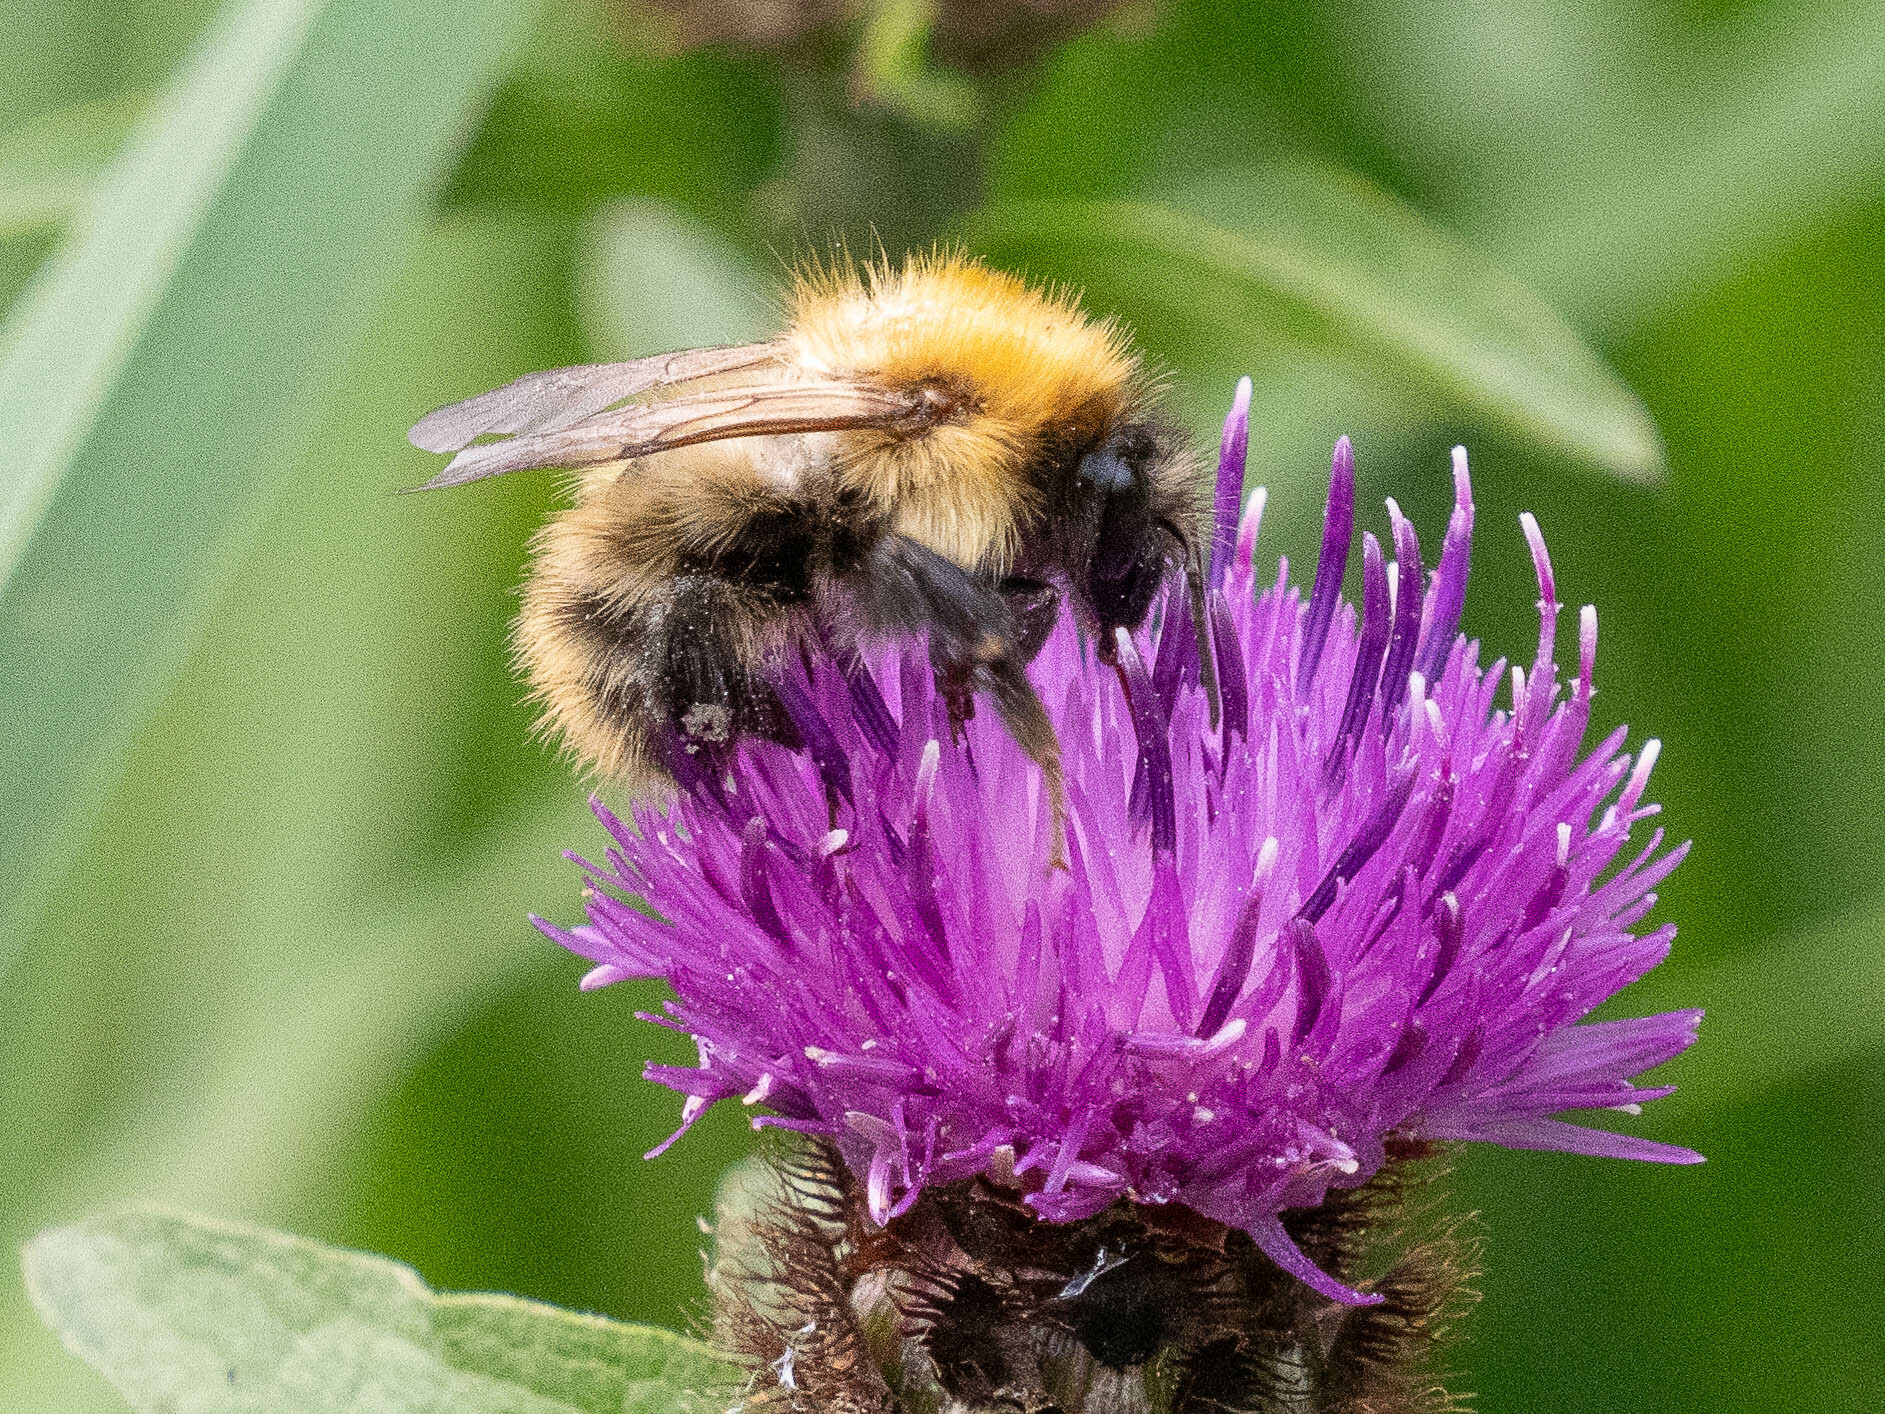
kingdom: Animalia
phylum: Arthropoda
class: Insecta
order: Hymenoptera
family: Apidae
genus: Bombus
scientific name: Bombus pascuorum
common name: Common carder bee
